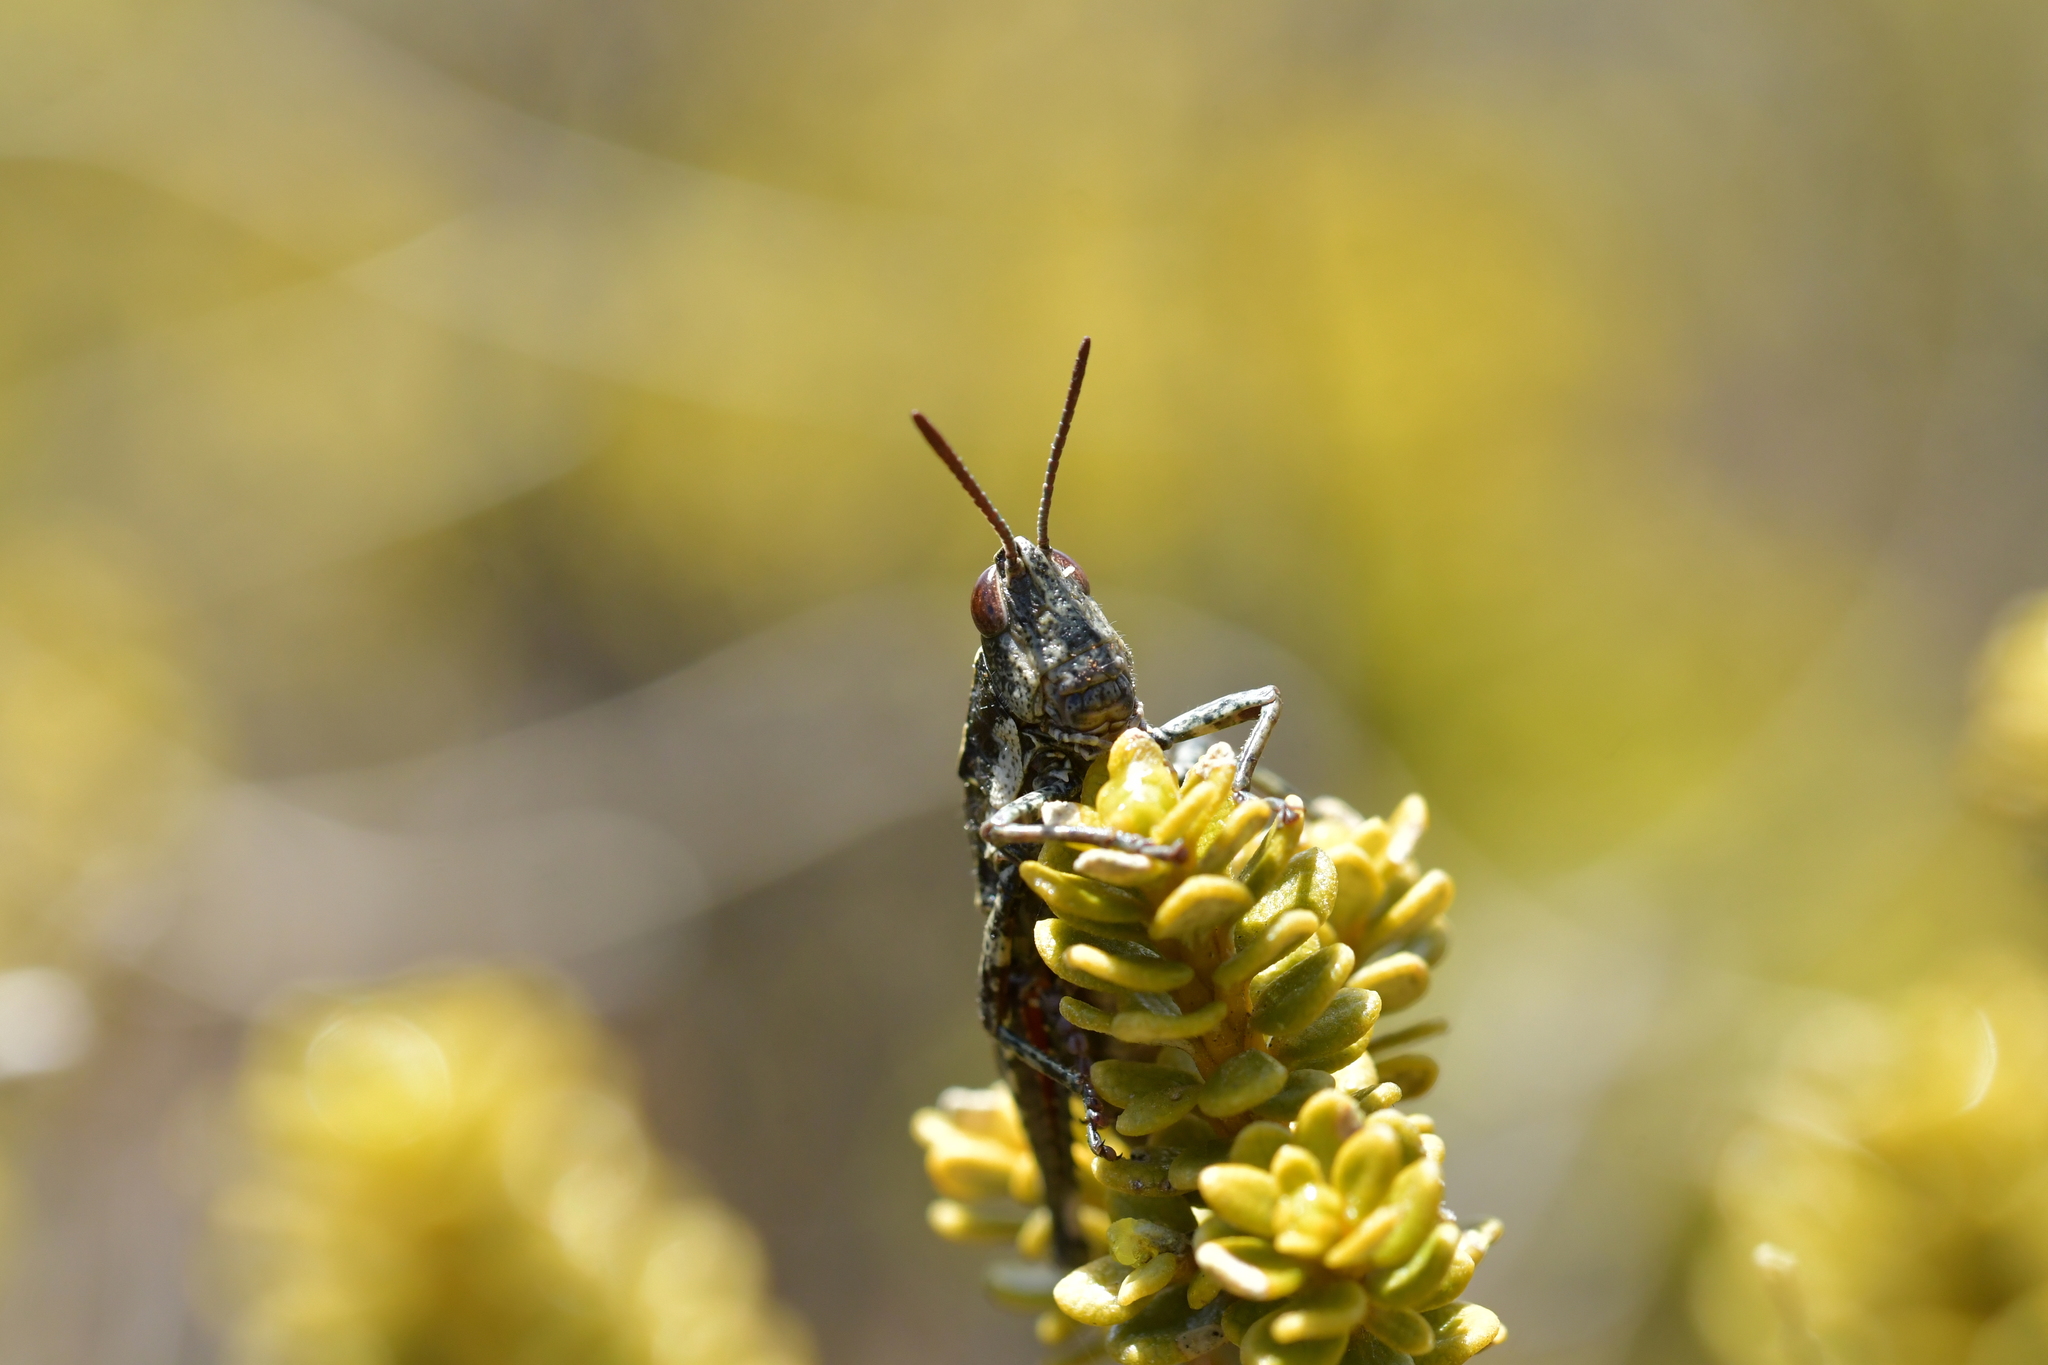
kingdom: Animalia
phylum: Arthropoda
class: Insecta
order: Orthoptera
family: Acrididae
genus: Sigaus
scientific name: Sigaus piliferus
